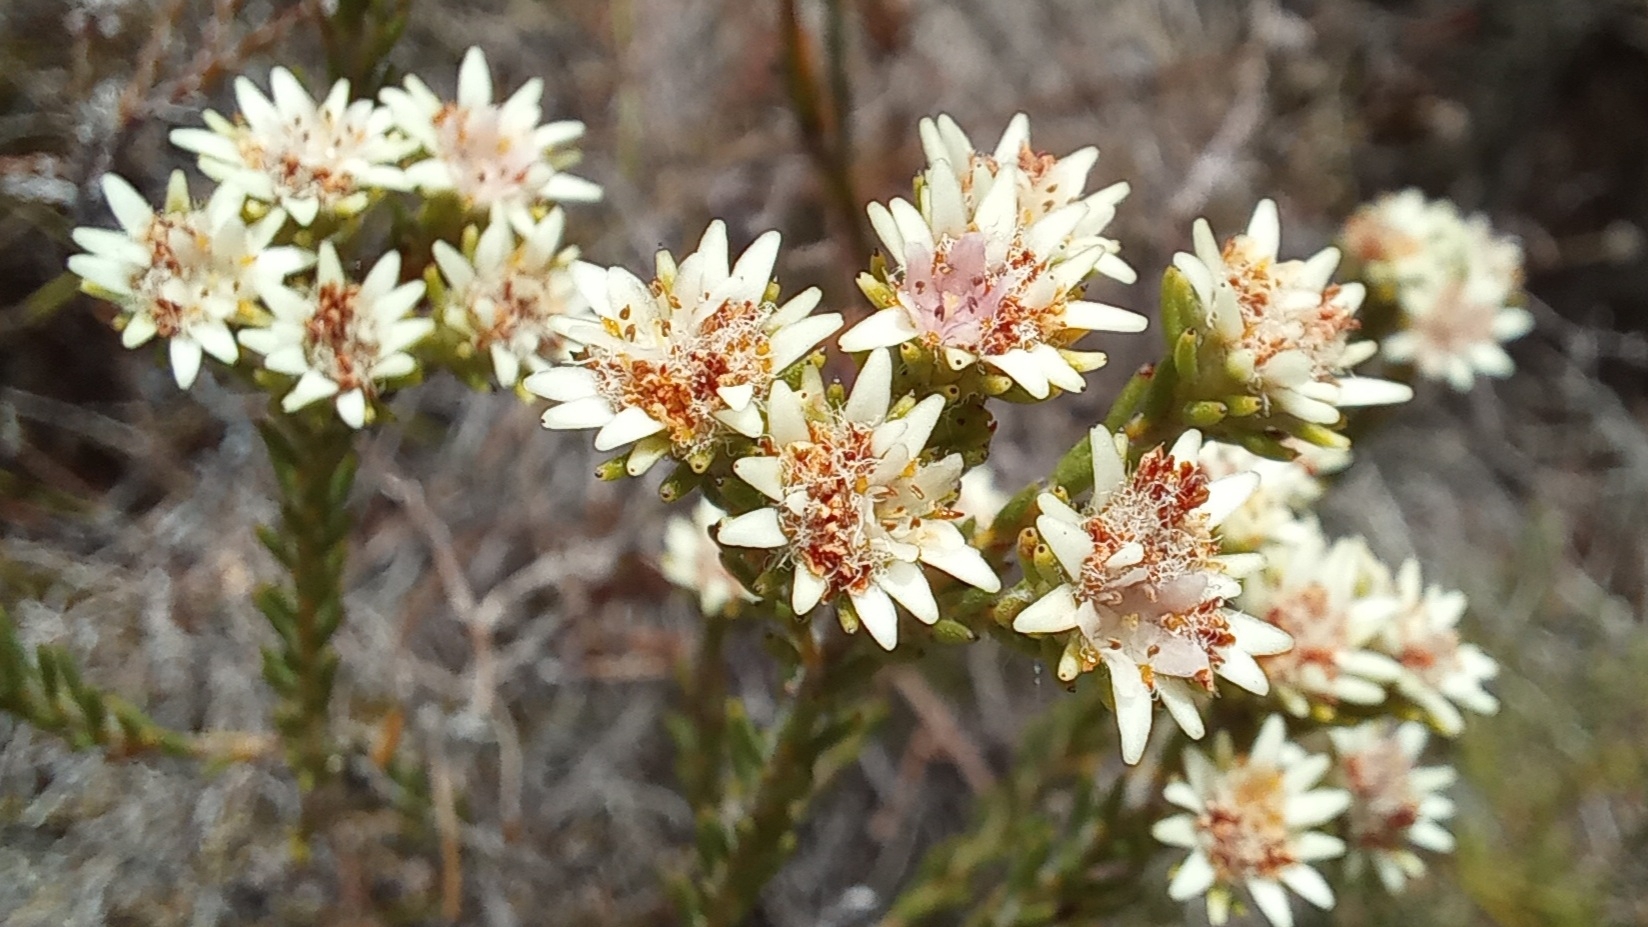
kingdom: Plantae
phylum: Tracheophyta
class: Magnoliopsida
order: Bruniales
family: Bruniaceae
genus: Staavia
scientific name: Staavia radiata
